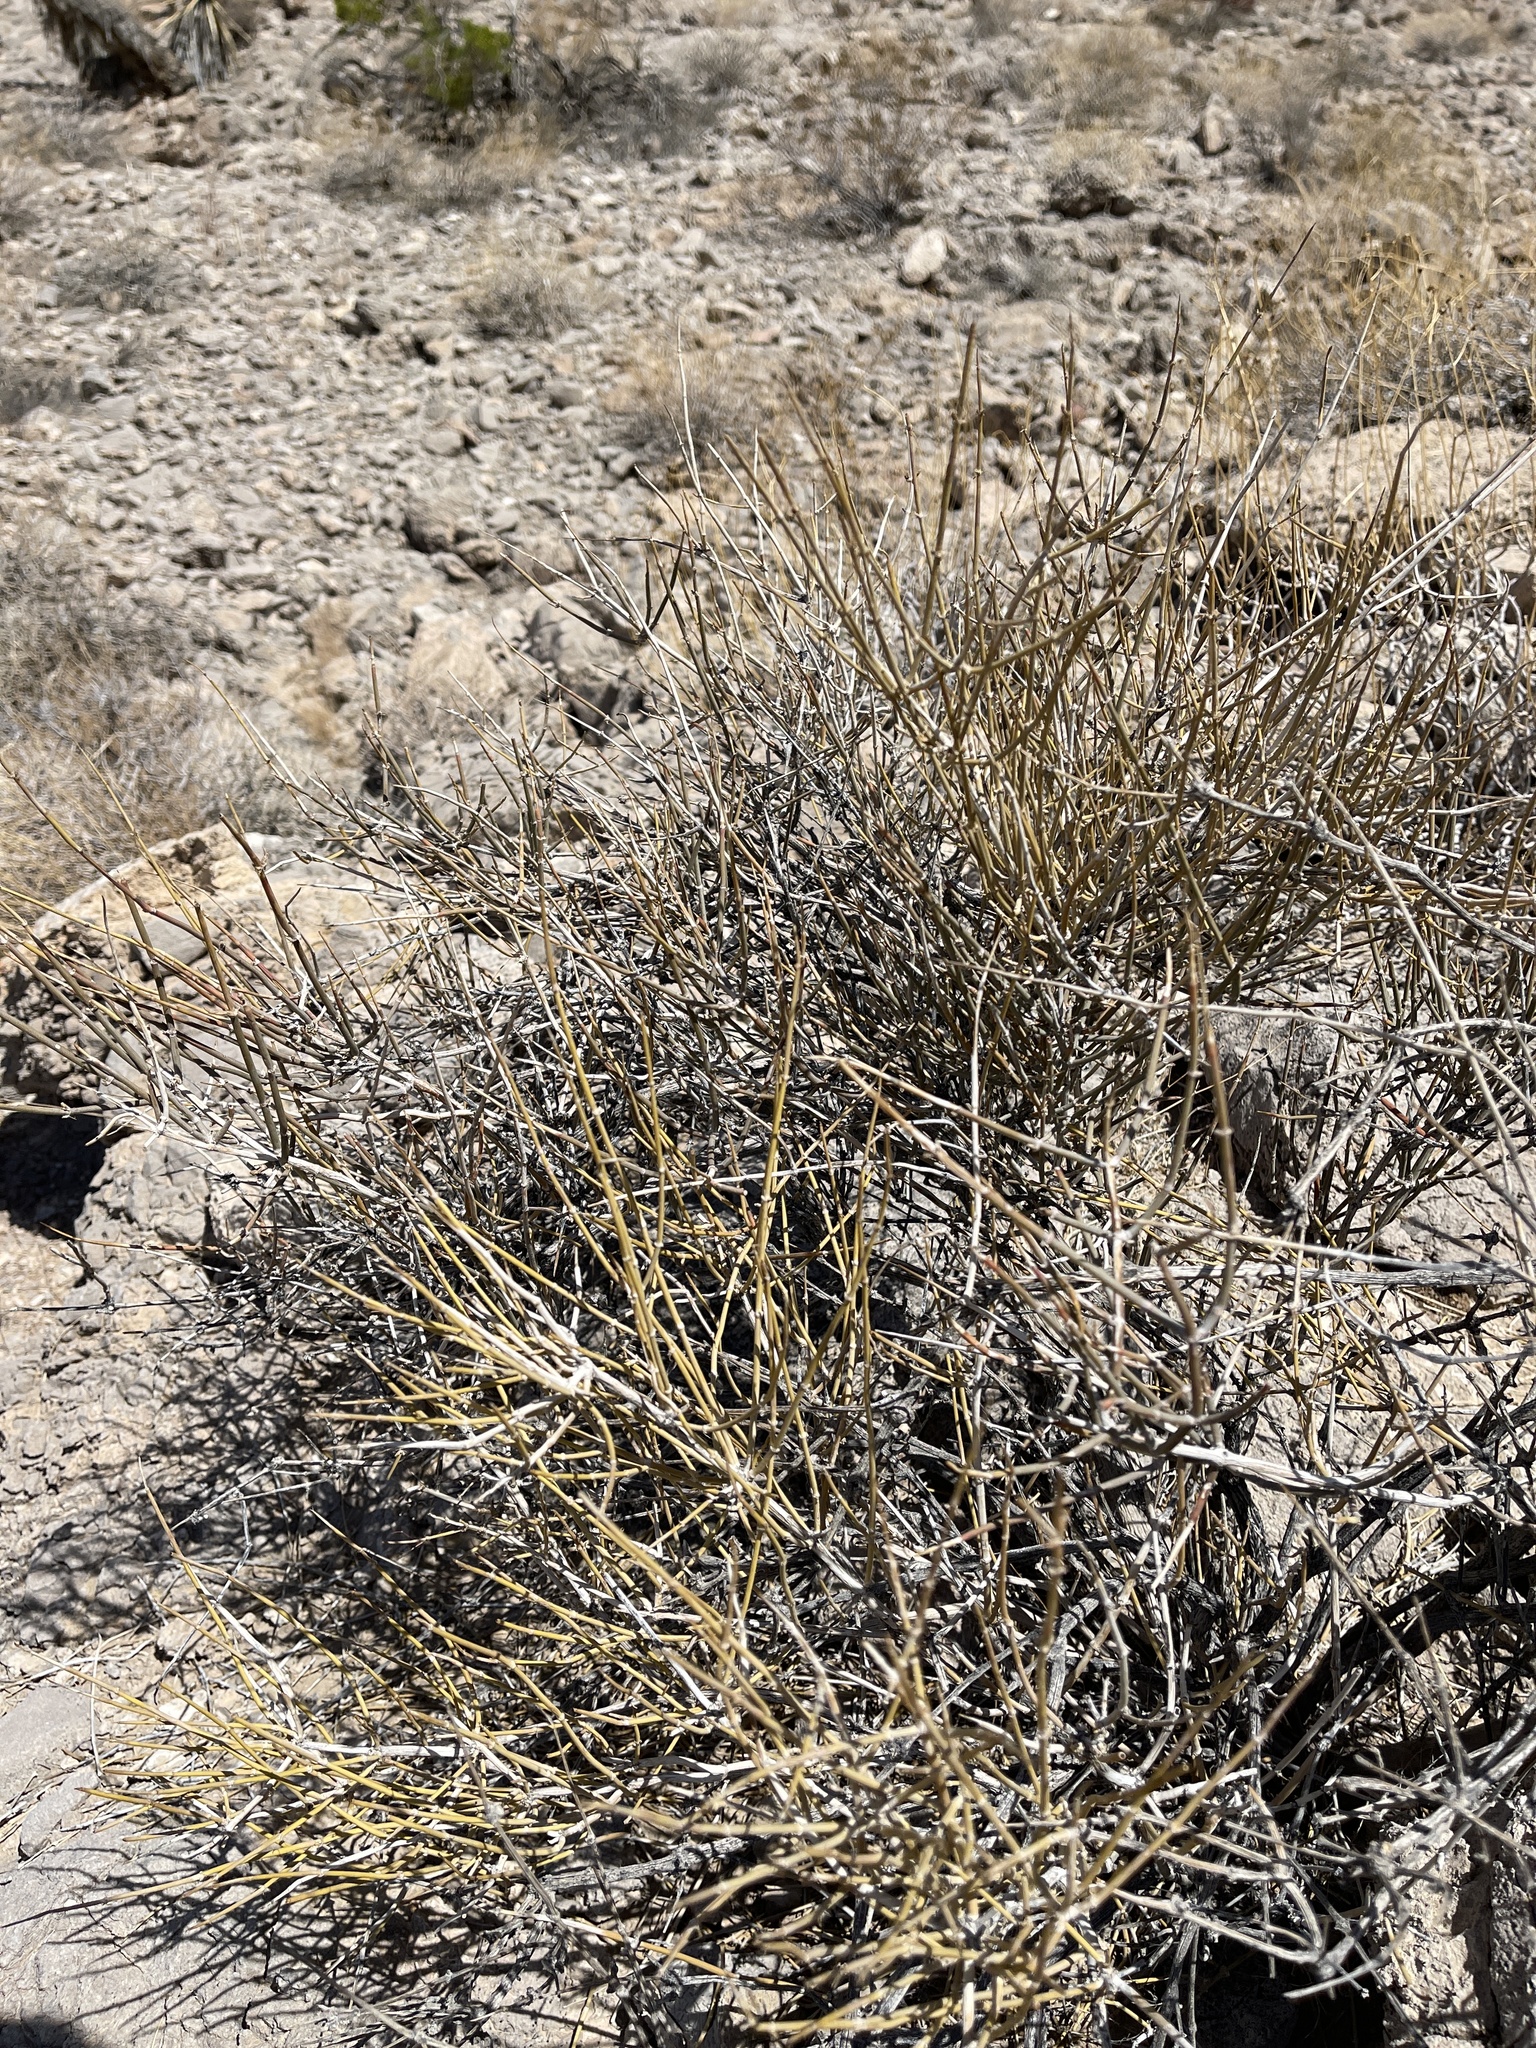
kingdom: Plantae
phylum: Tracheophyta
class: Gnetopsida
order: Ephedrales
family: Ephedraceae
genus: Ephedra
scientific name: Ephedra nevadensis
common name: Gray ephedra
